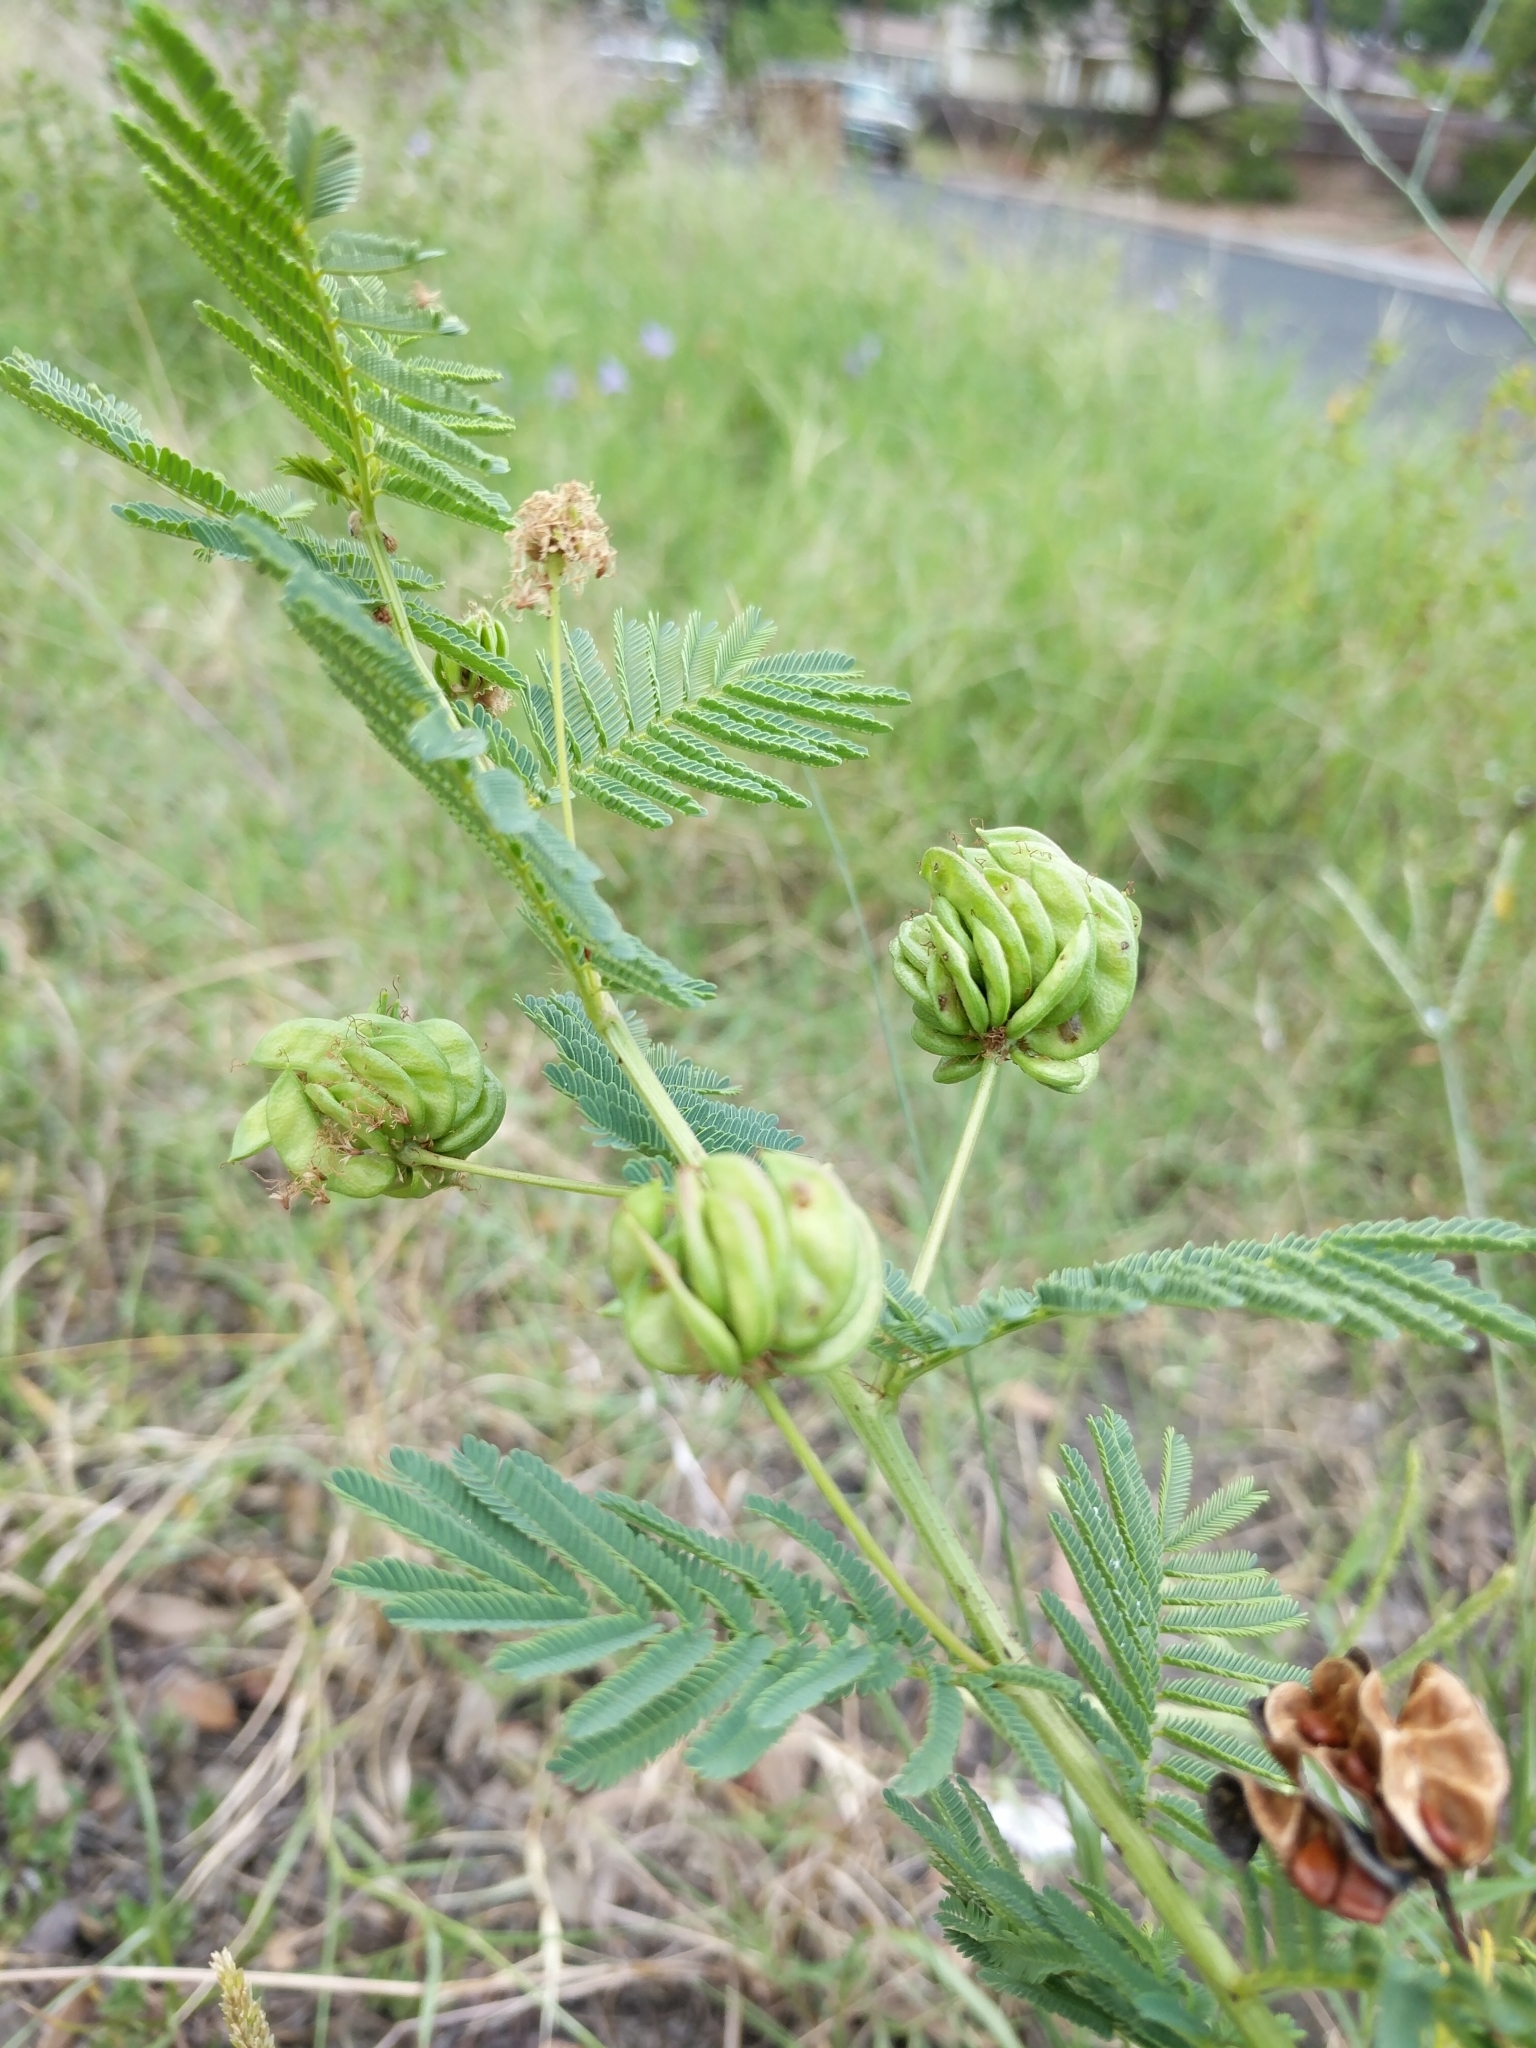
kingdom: Plantae
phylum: Tracheophyta
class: Magnoliopsida
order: Fabales
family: Fabaceae
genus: Desmanthus
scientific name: Desmanthus illinoensis
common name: Illinois bundle-flower
